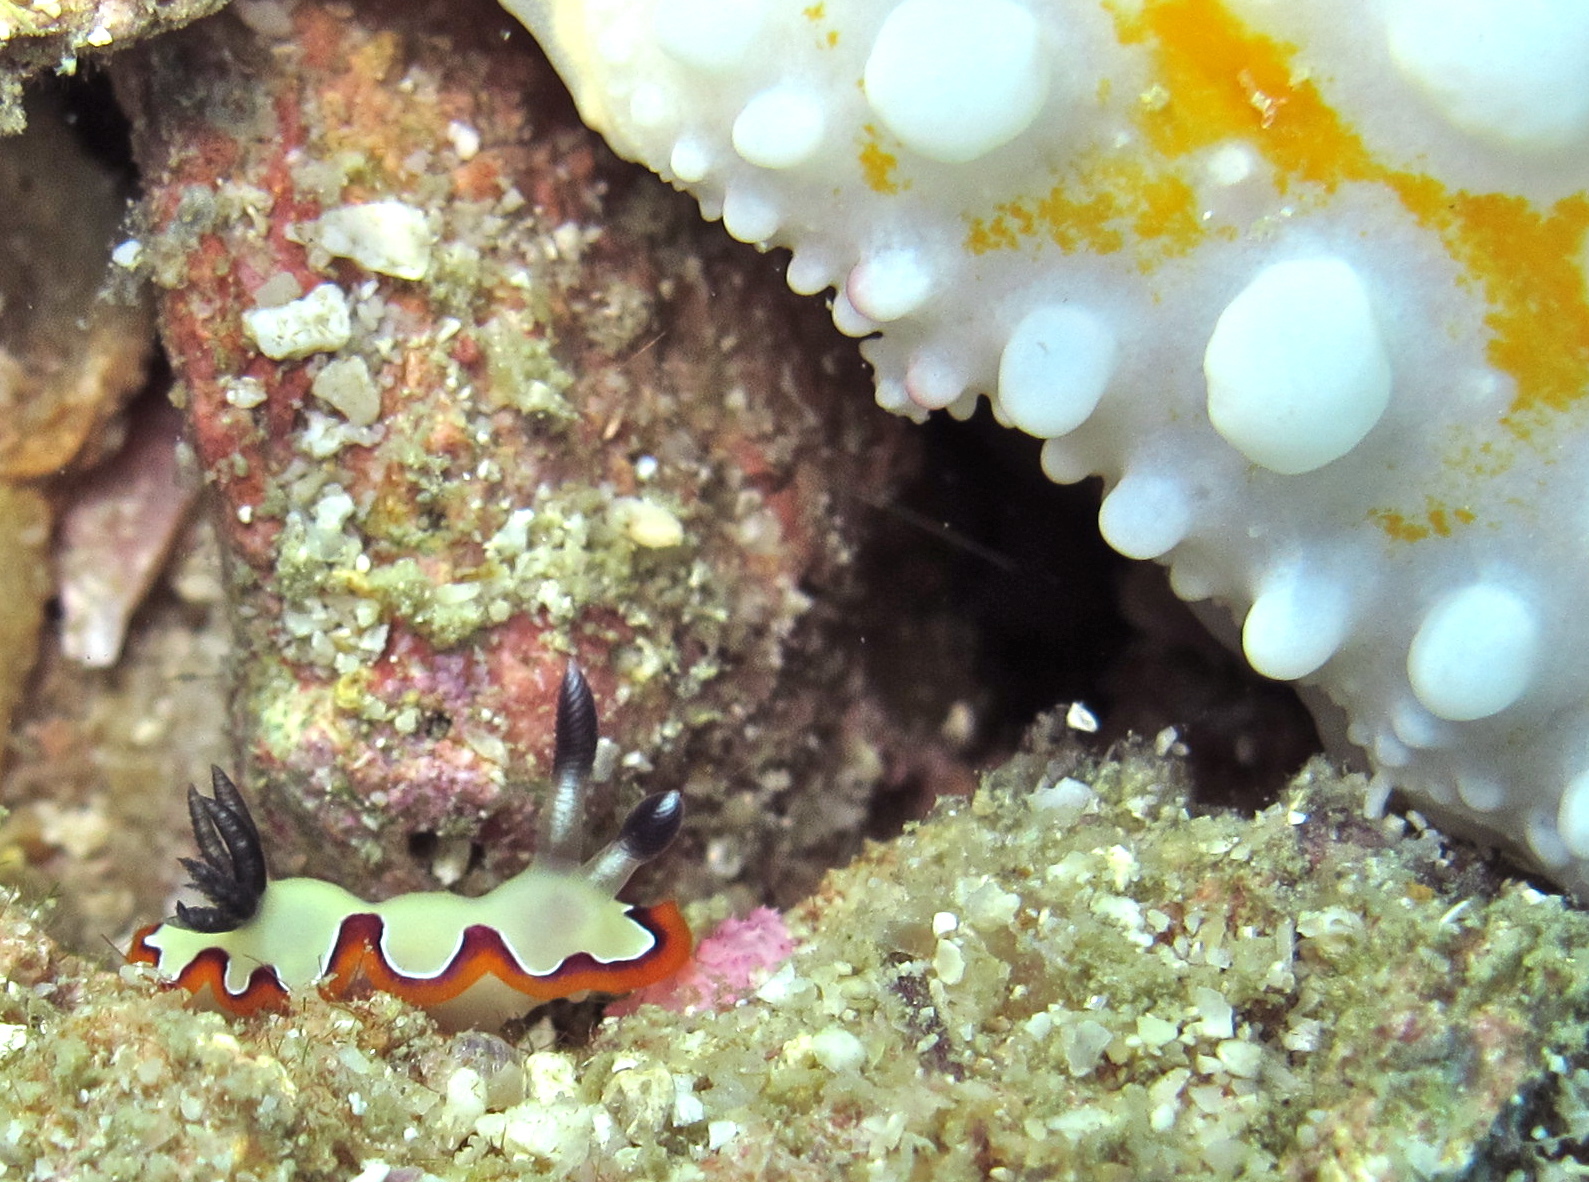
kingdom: Animalia
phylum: Mollusca
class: Gastropoda
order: Nudibranchia
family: Chromodorididae
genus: Goniobranchus
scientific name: Goniobranchus fidelis
